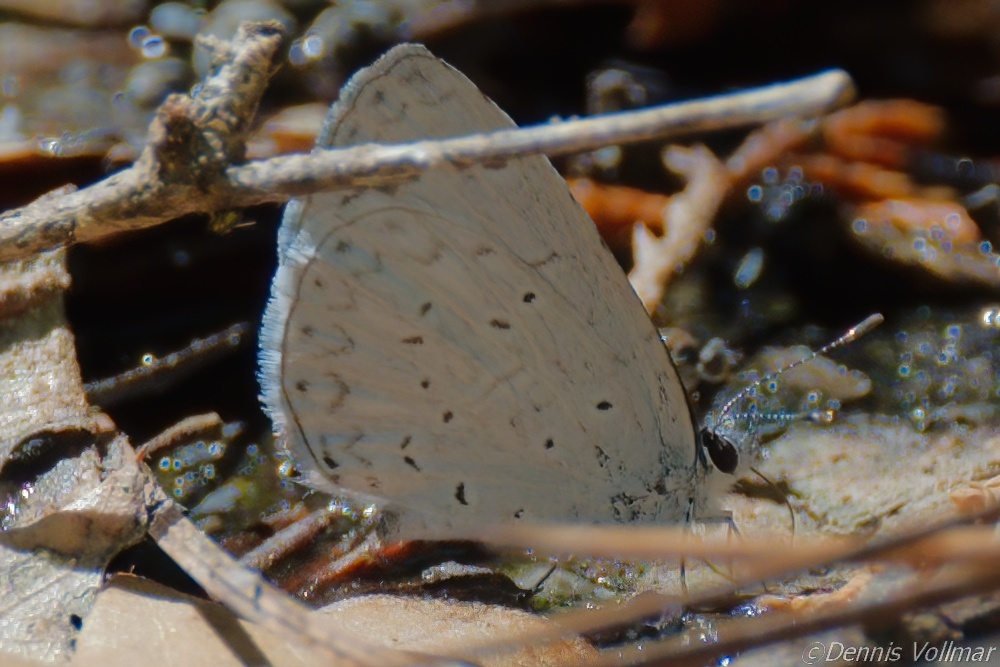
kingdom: Animalia
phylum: Arthropoda
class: Insecta
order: Lepidoptera
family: Lycaenidae
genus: Celastrina
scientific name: Celastrina ladon
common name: Spring azure
